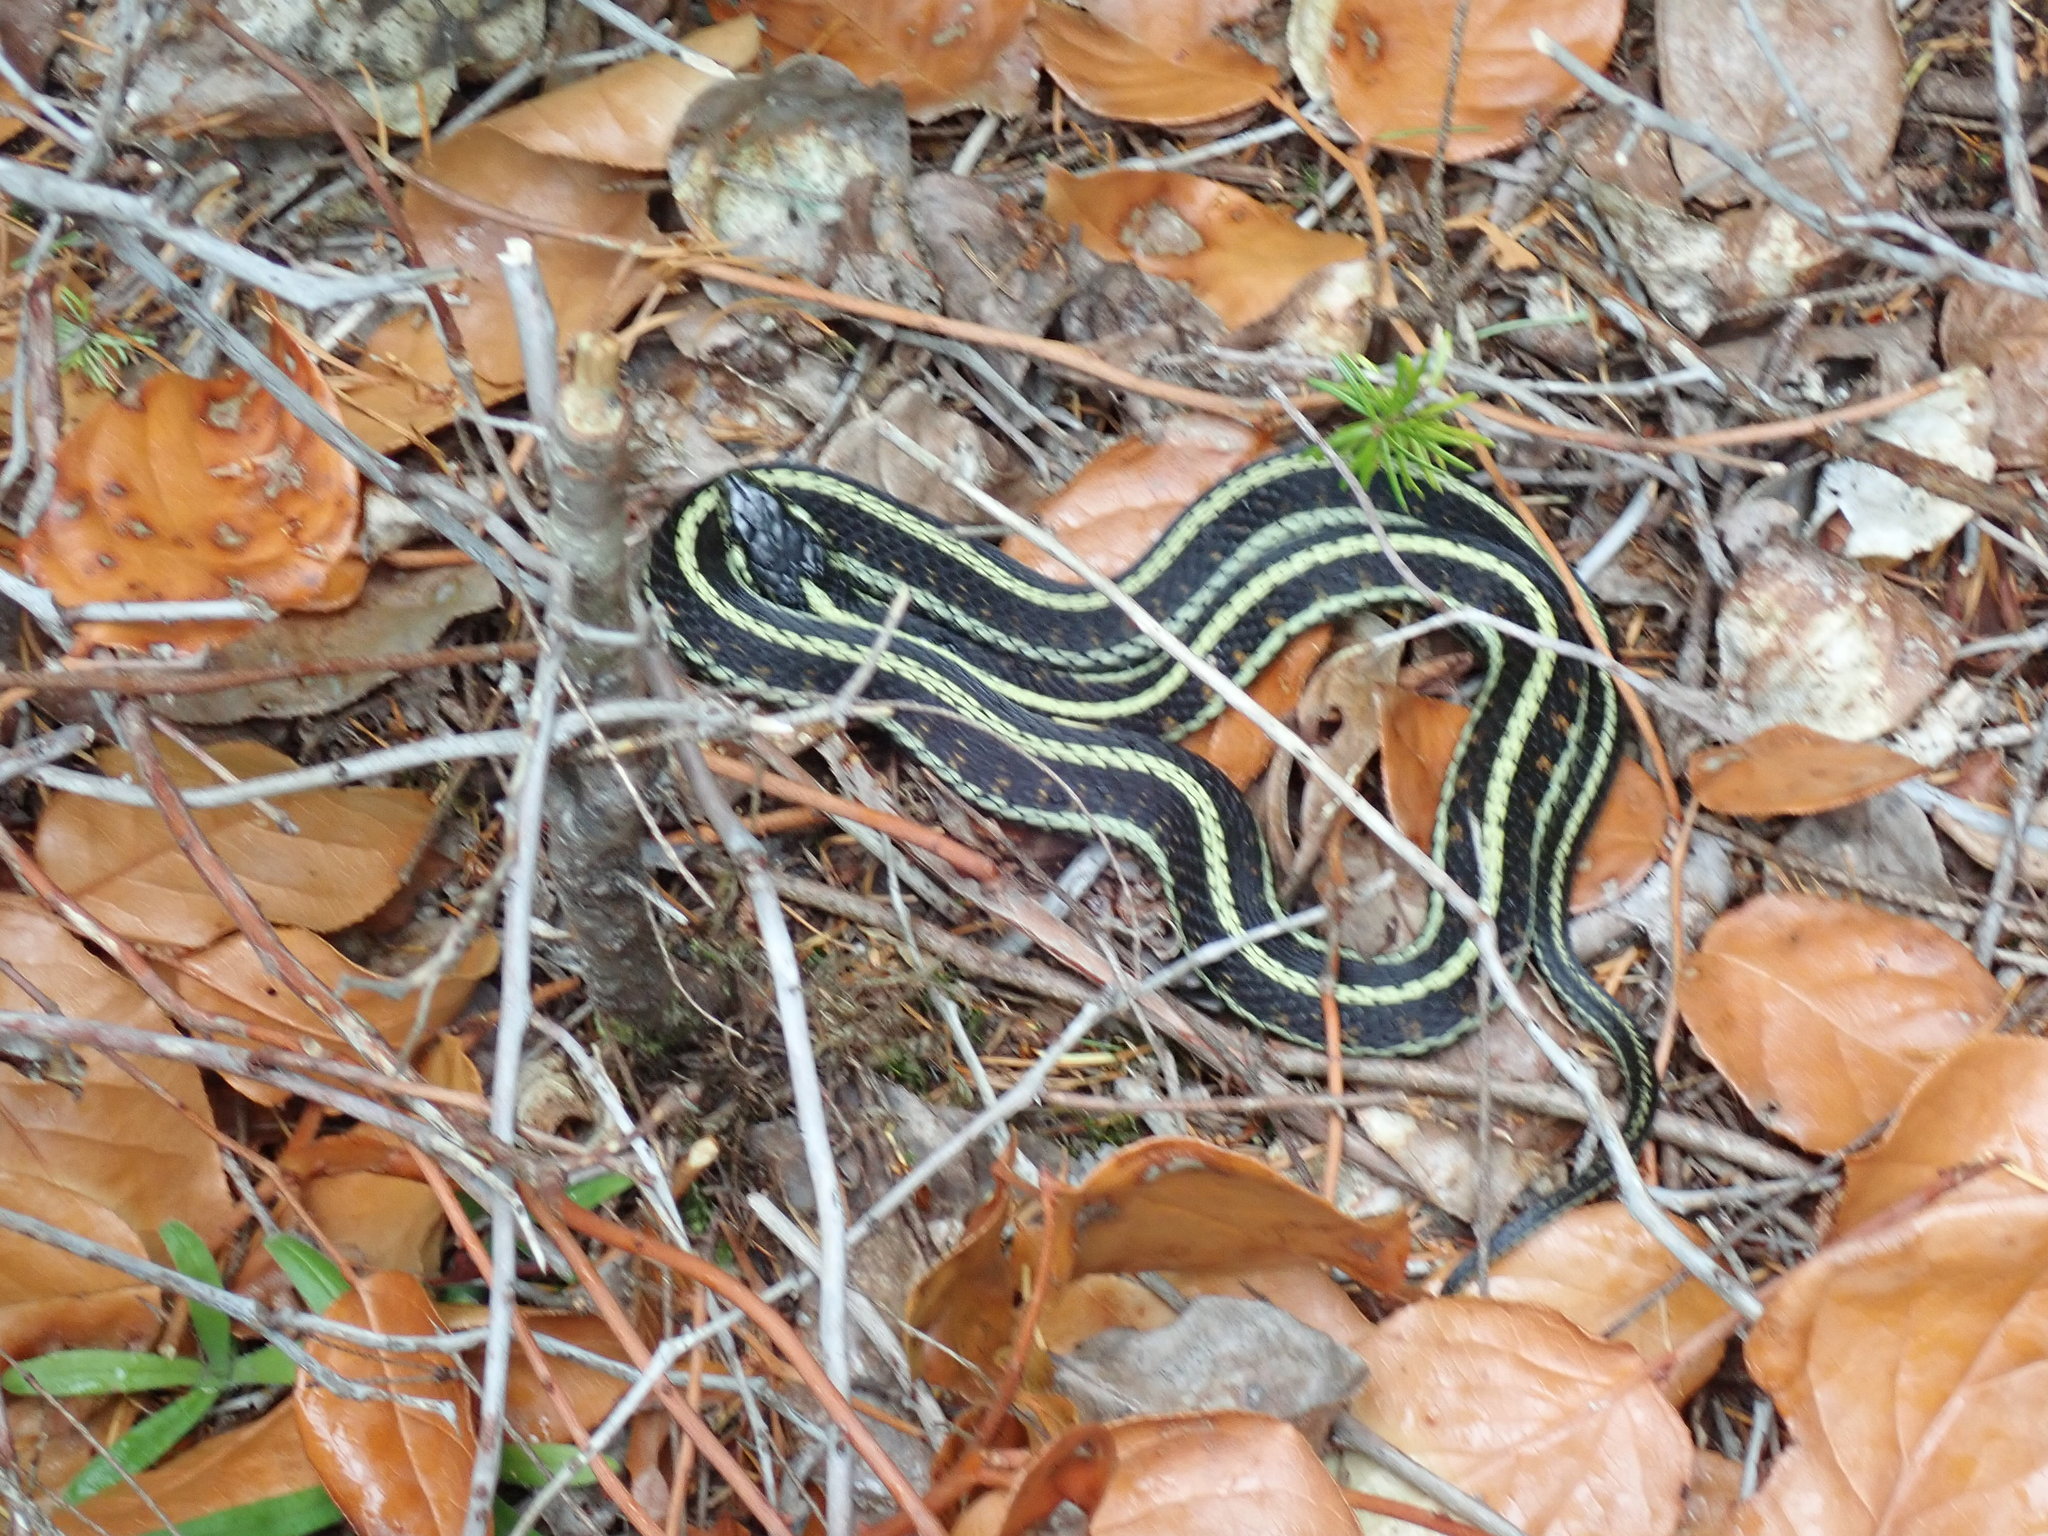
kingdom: Animalia
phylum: Chordata
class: Squamata
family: Colubridae
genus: Thamnophis
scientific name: Thamnophis sirtalis
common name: Common garter snake
